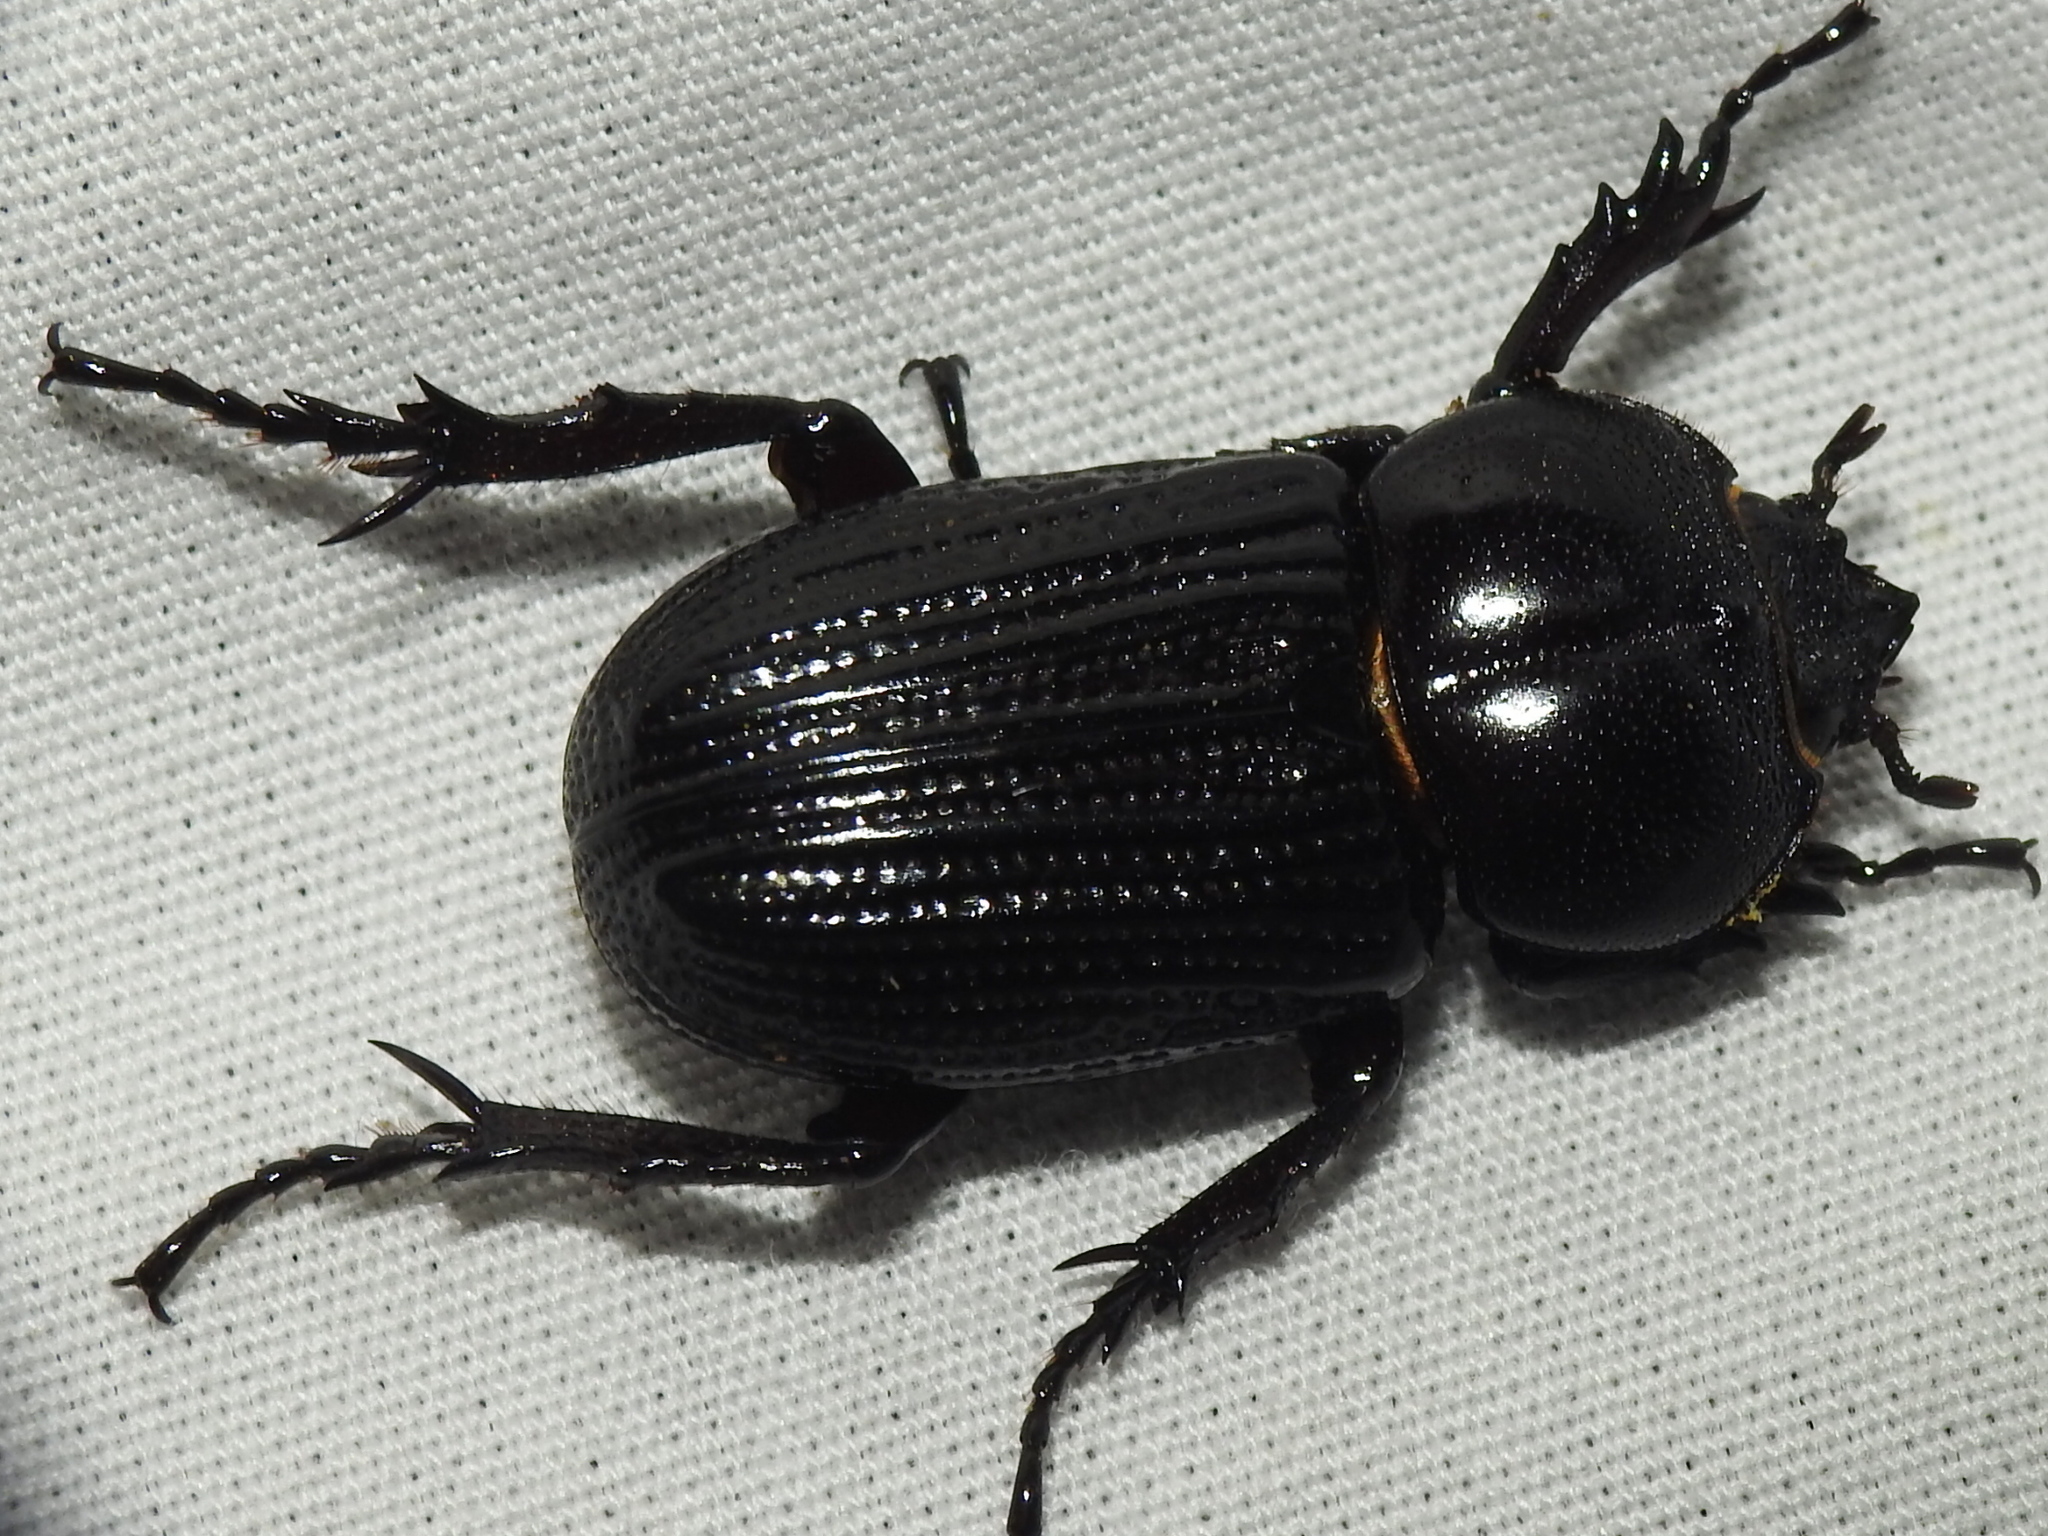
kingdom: Animalia
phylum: Arthropoda
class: Insecta
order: Coleoptera
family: Scarabaeidae
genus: Phileurus
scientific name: Phileurus valgus
